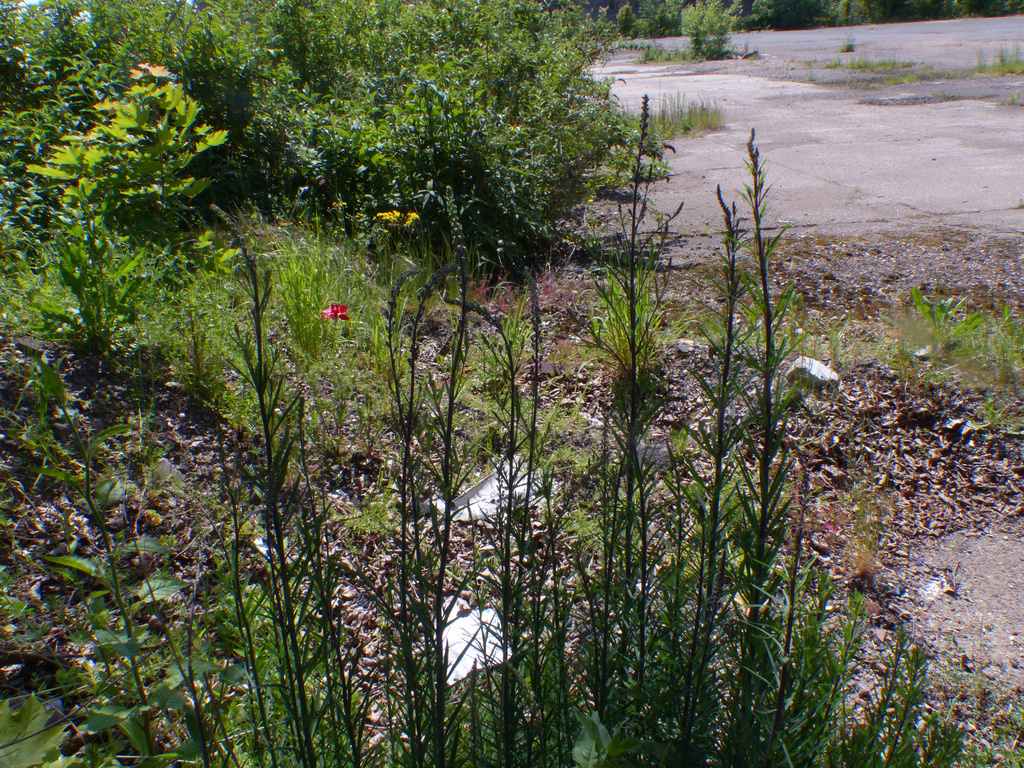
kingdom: Plantae
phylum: Tracheophyta
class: Magnoliopsida
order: Lamiales
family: Plantaginaceae
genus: Linaria
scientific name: Linaria purpurea
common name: Purple toadflax
